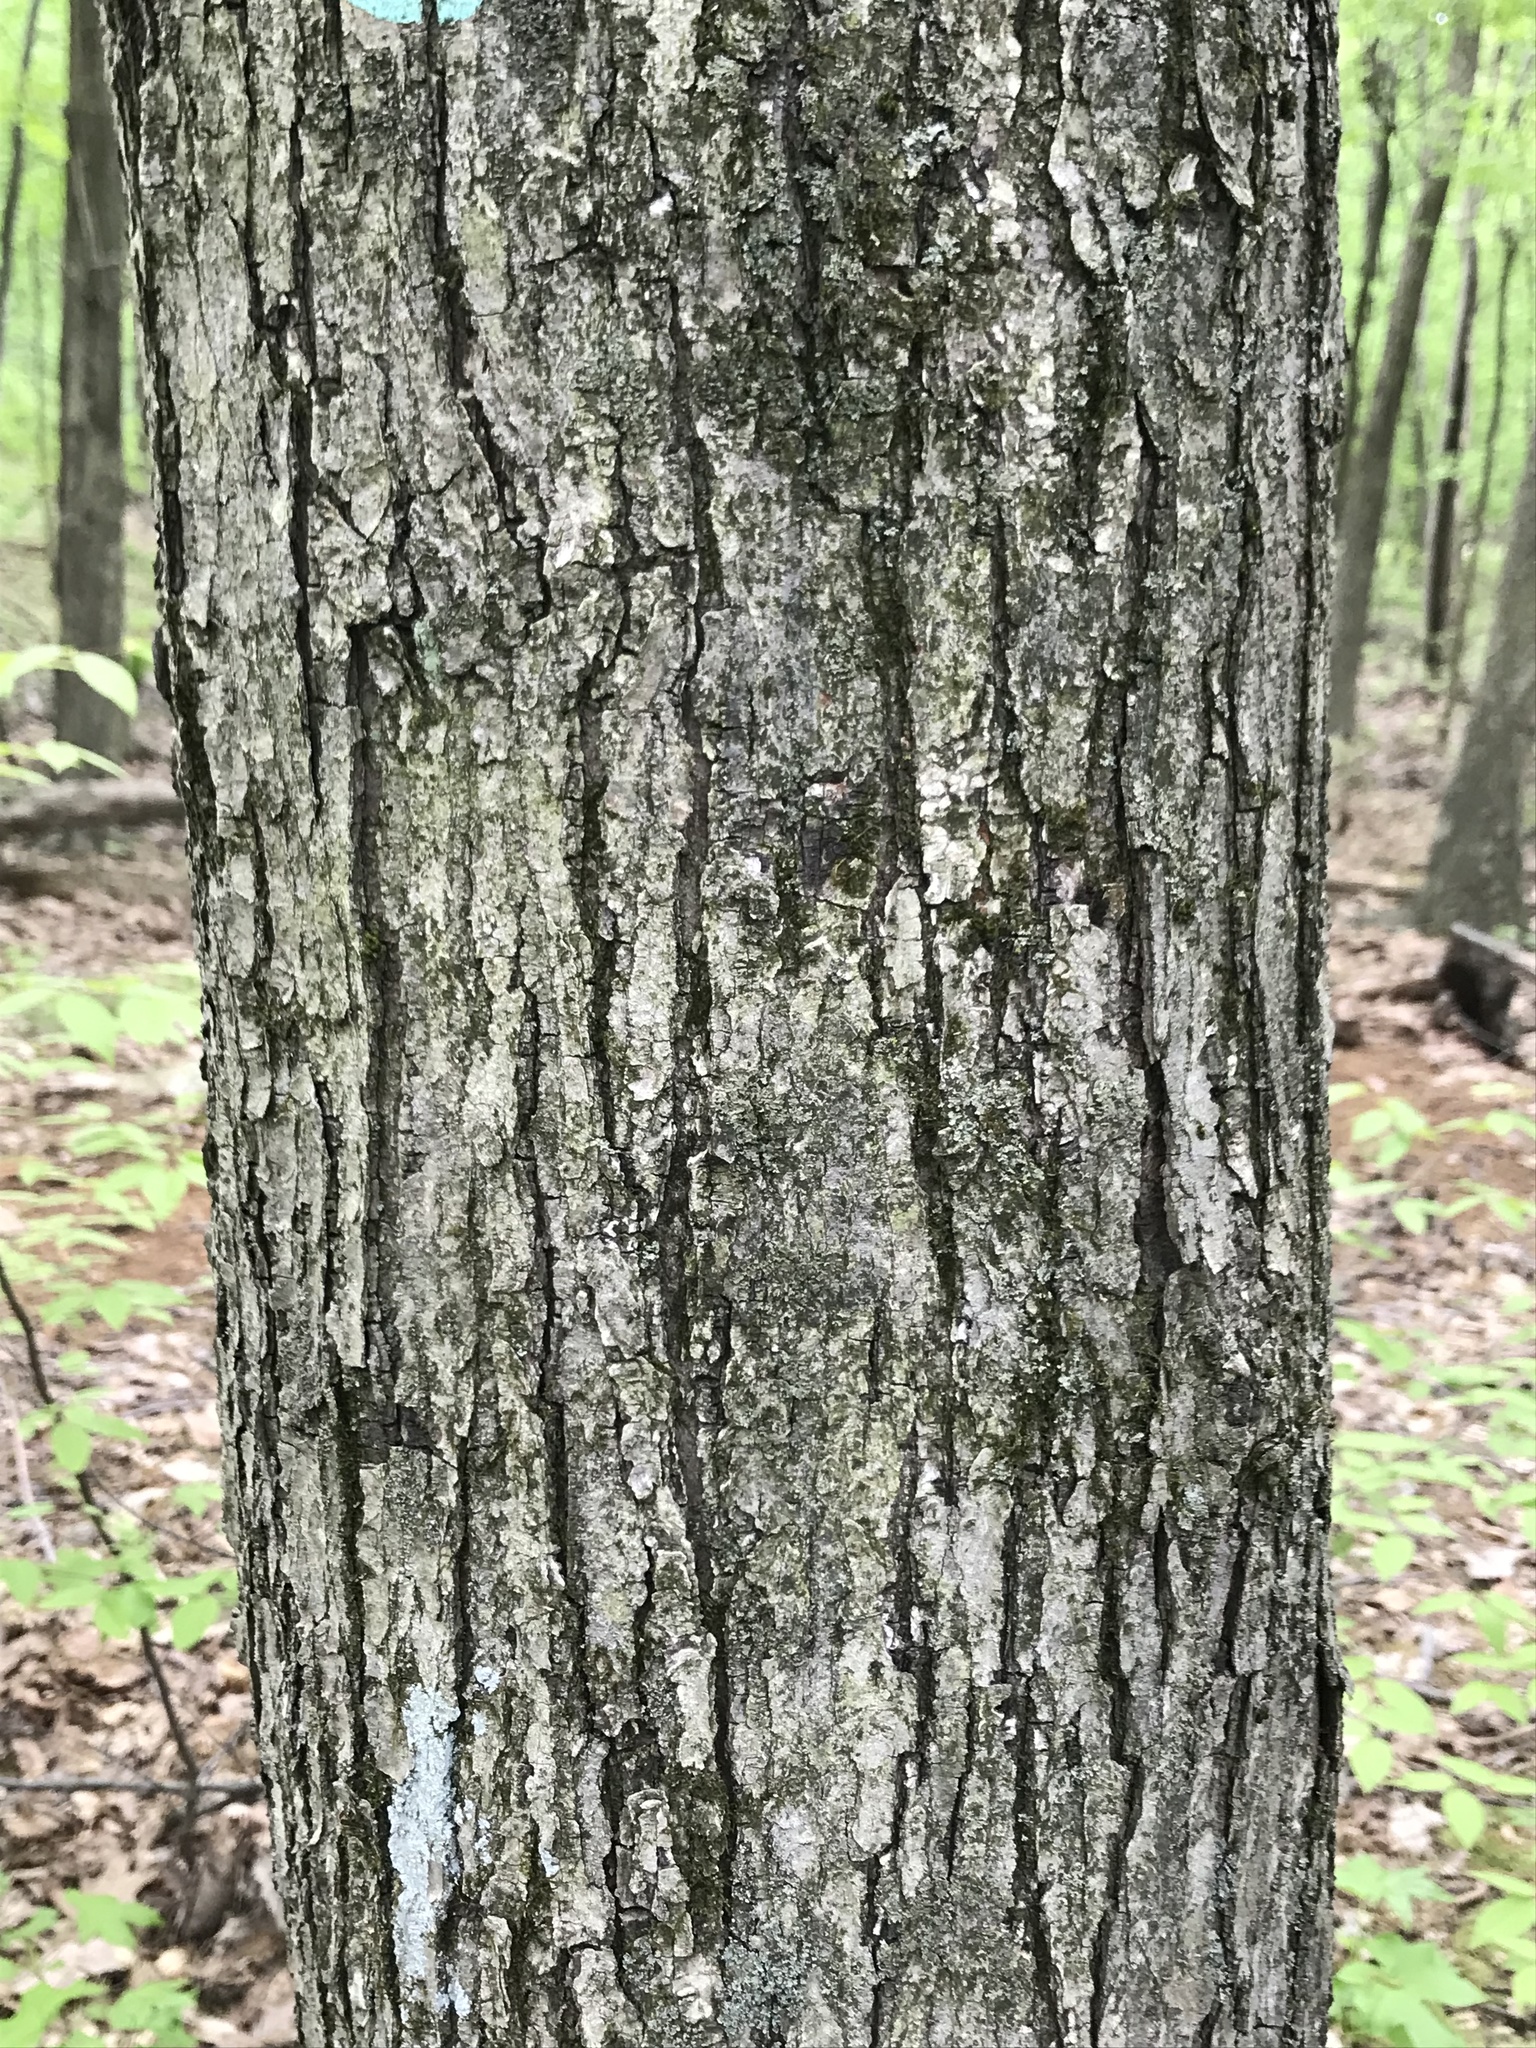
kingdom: Plantae
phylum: Tracheophyta
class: Magnoliopsida
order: Sapindales
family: Sapindaceae
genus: Acer
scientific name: Acer rubrum
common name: Red maple
